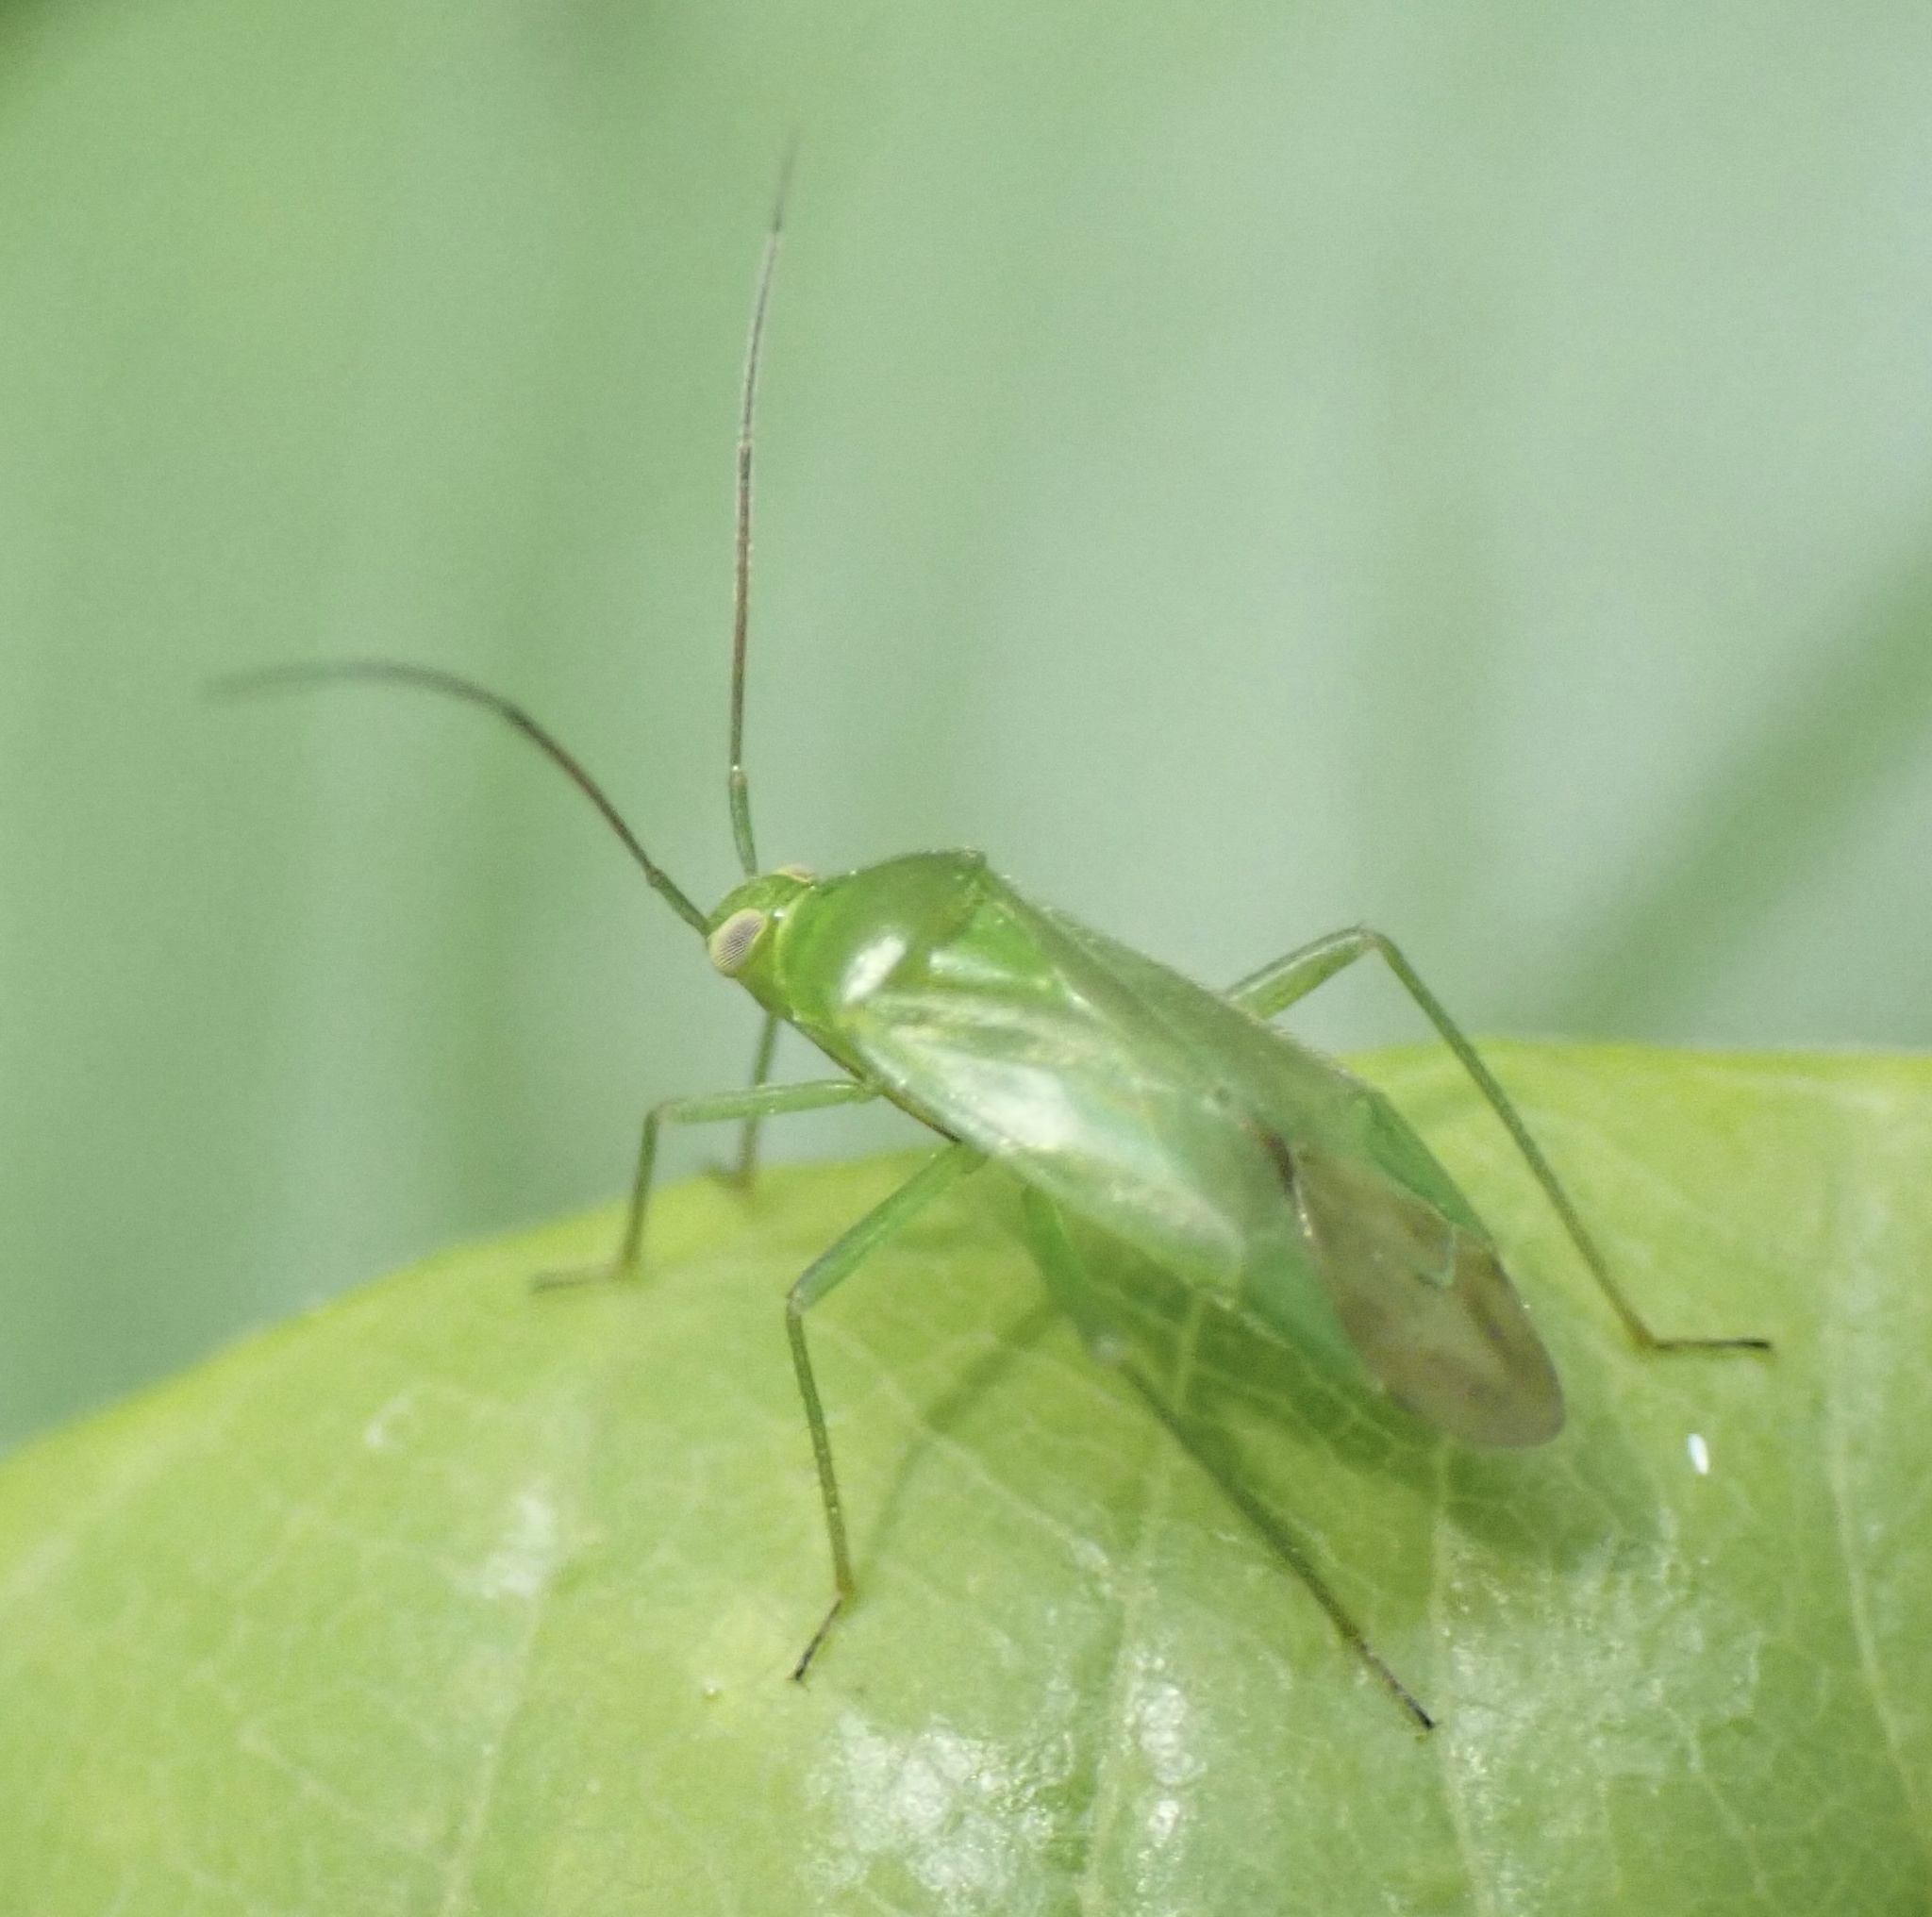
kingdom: Animalia
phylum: Arthropoda
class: Insecta
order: Hemiptera
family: Miridae
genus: Lygocoris
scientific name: Lygocoris pabulinus
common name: Common green capsid
